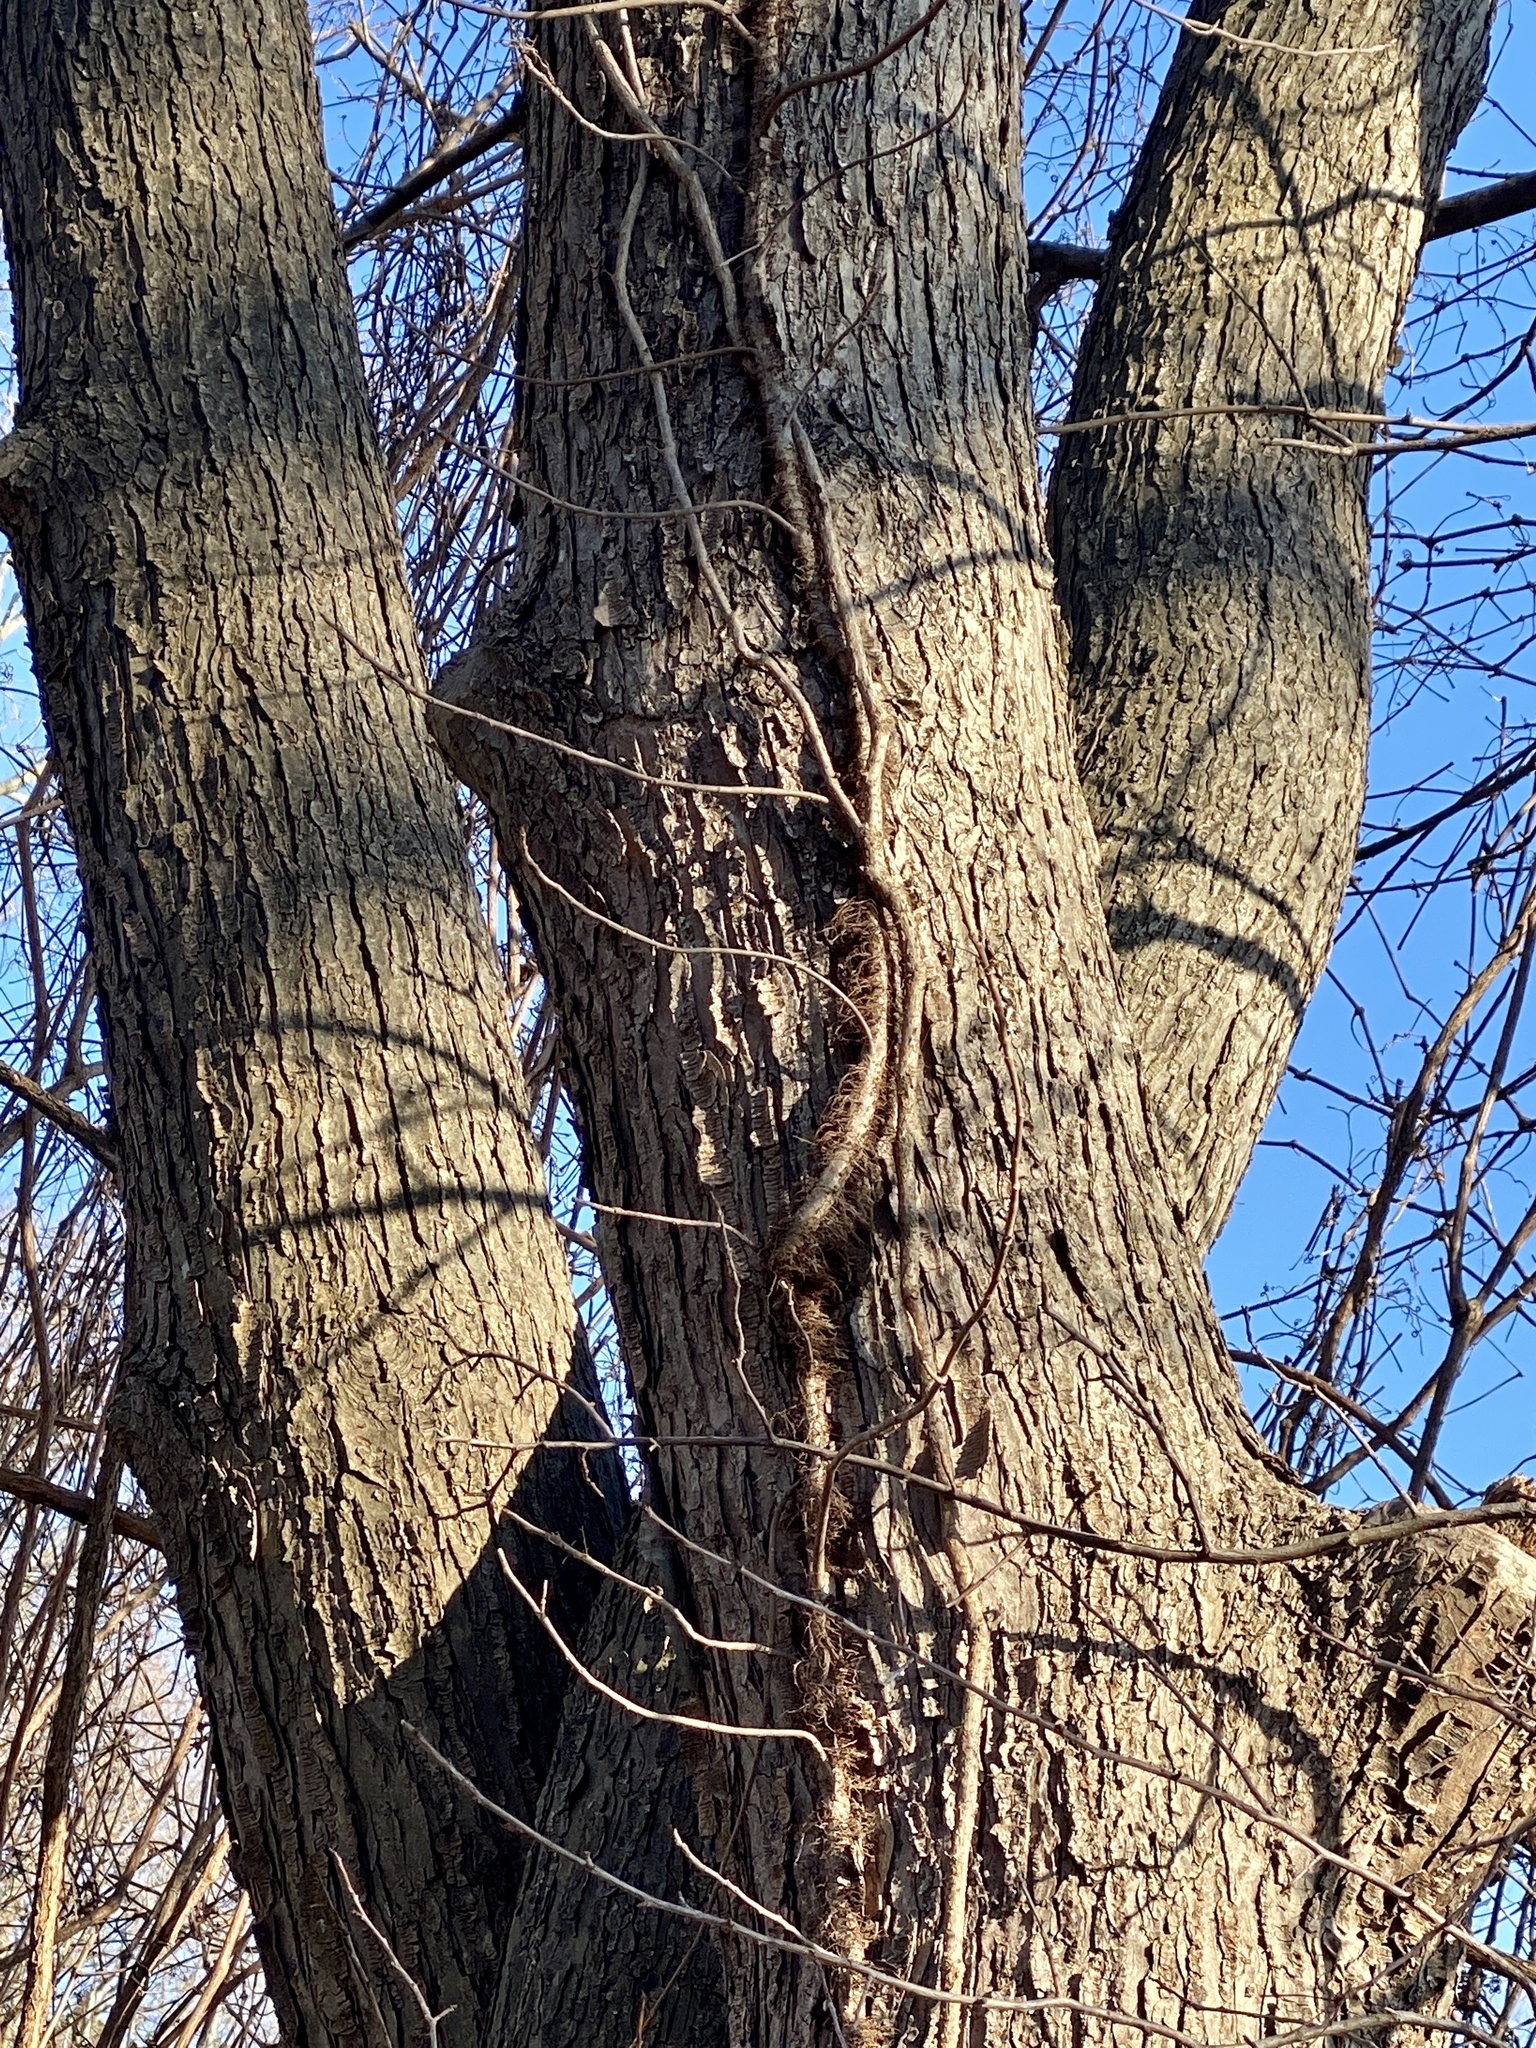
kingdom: Plantae
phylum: Tracheophyta
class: Magnoliopsida
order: Sapindales
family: Sapindaceae
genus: Acer
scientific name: Acer saccharinum
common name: Silver maple
